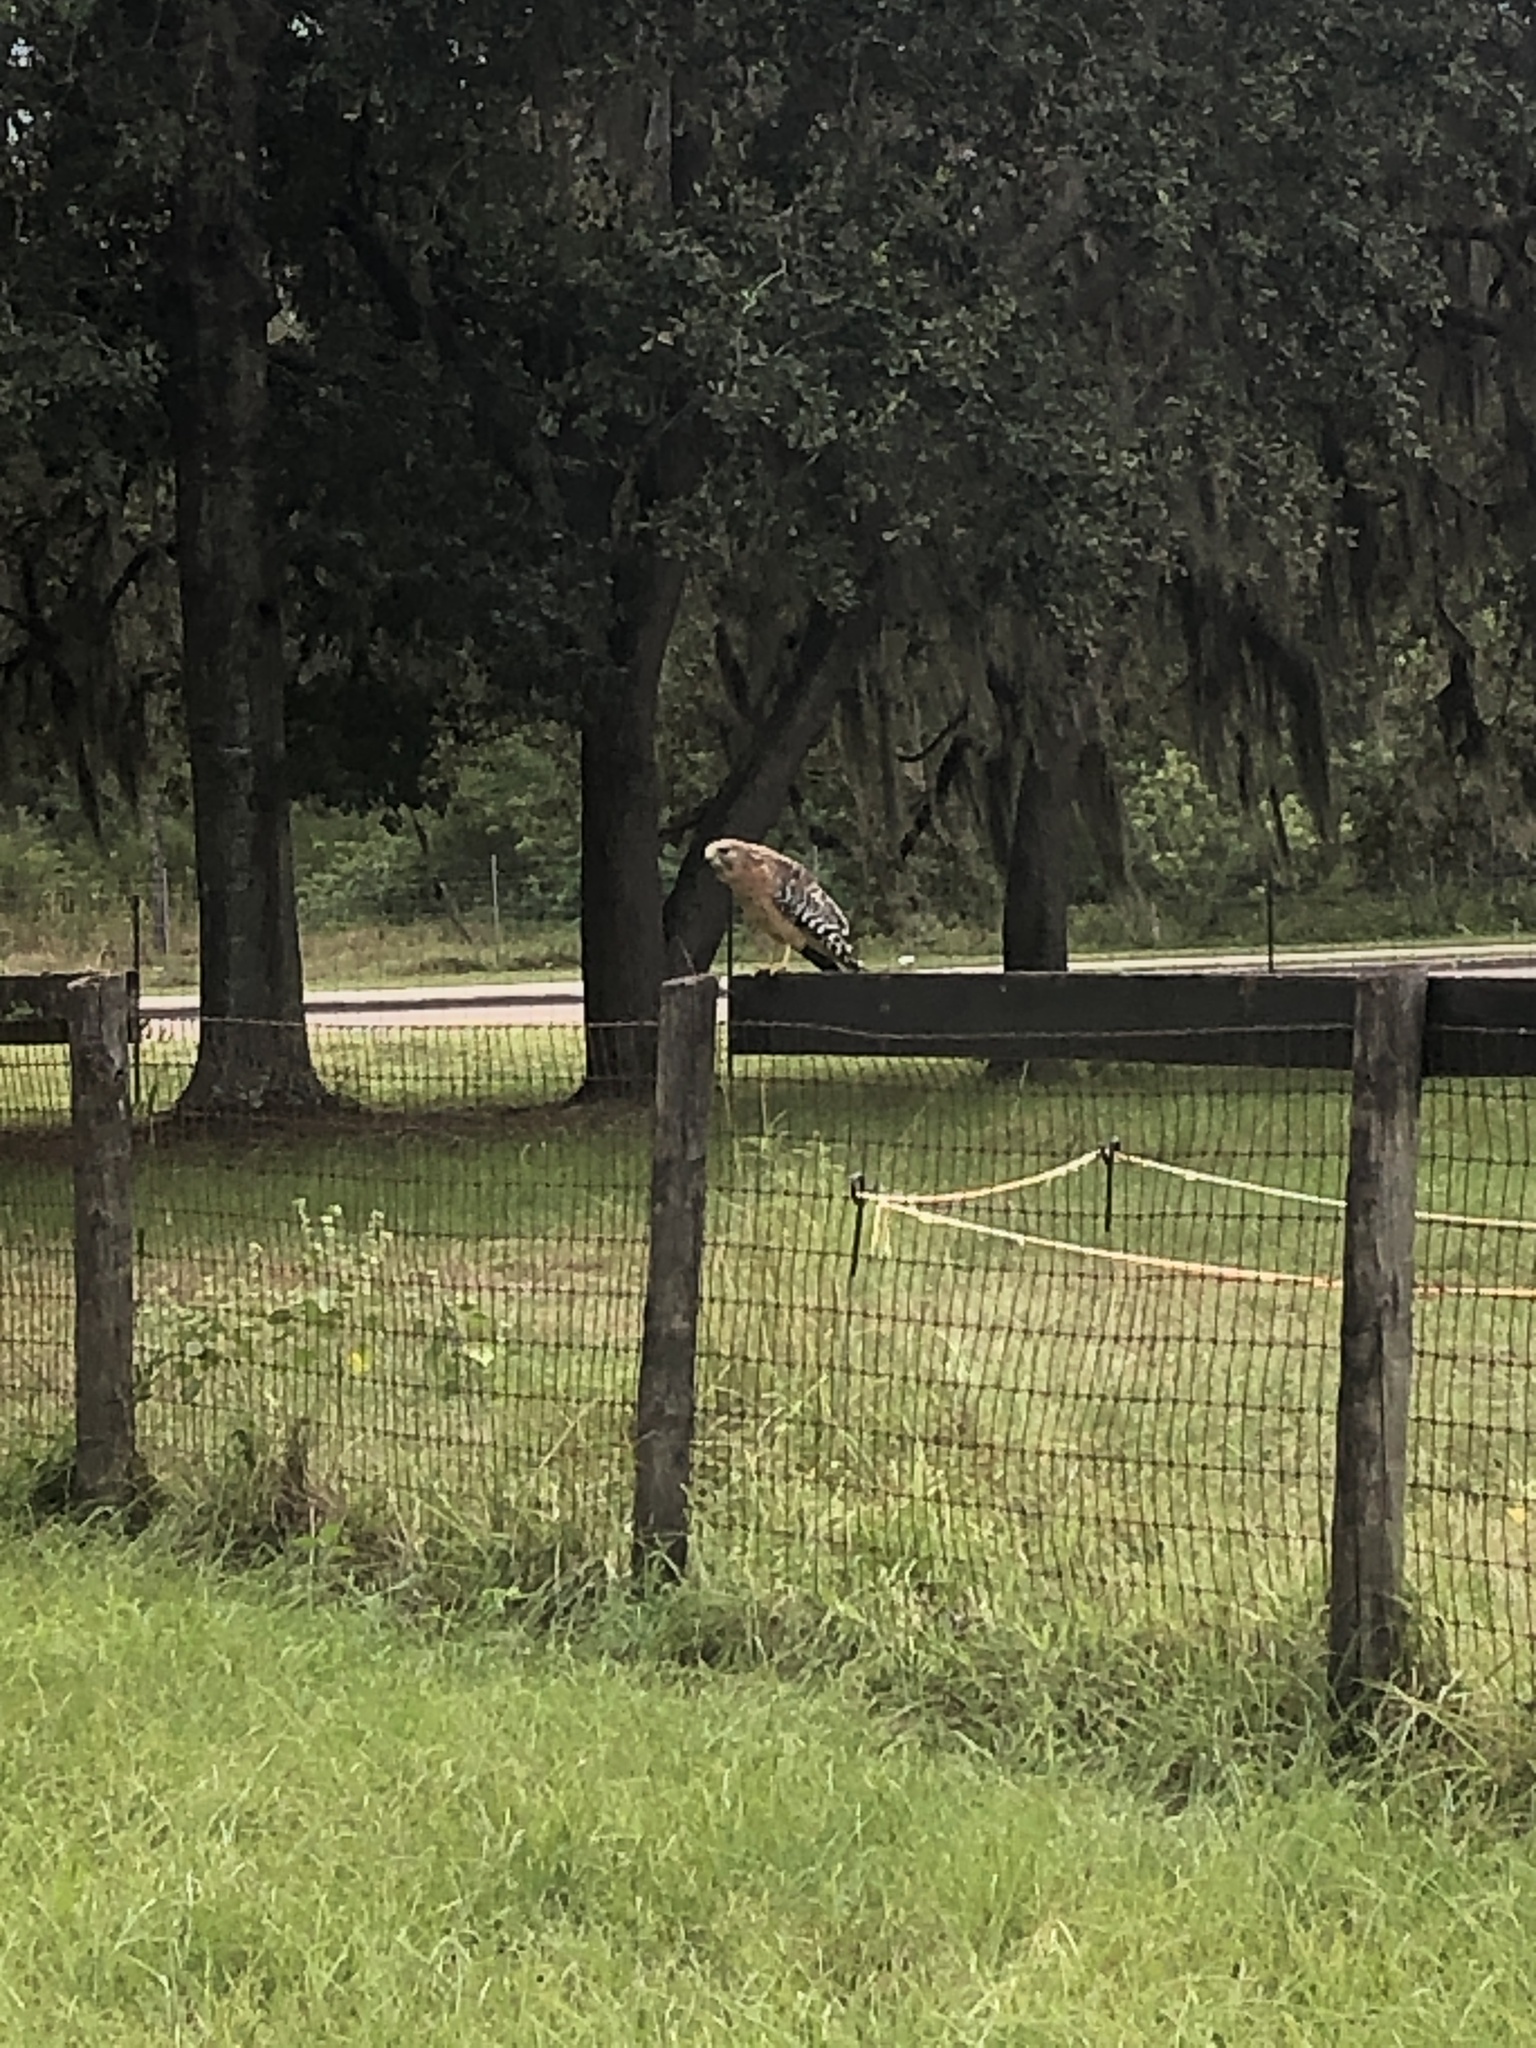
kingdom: Animalia
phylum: Chordata
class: Aves
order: Accipitriformes
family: Accipitridae
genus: Buteo
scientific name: Buteo lineatus
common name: Red-shouldered hawk
